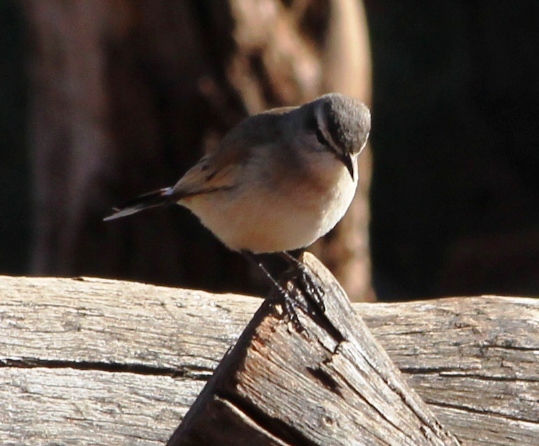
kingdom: Animalia
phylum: Chordata
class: Aves
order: Passeriformes
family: Muscicapidae
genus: Erythropygia
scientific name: Erythropygia paena
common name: Kalahari scrub robin
